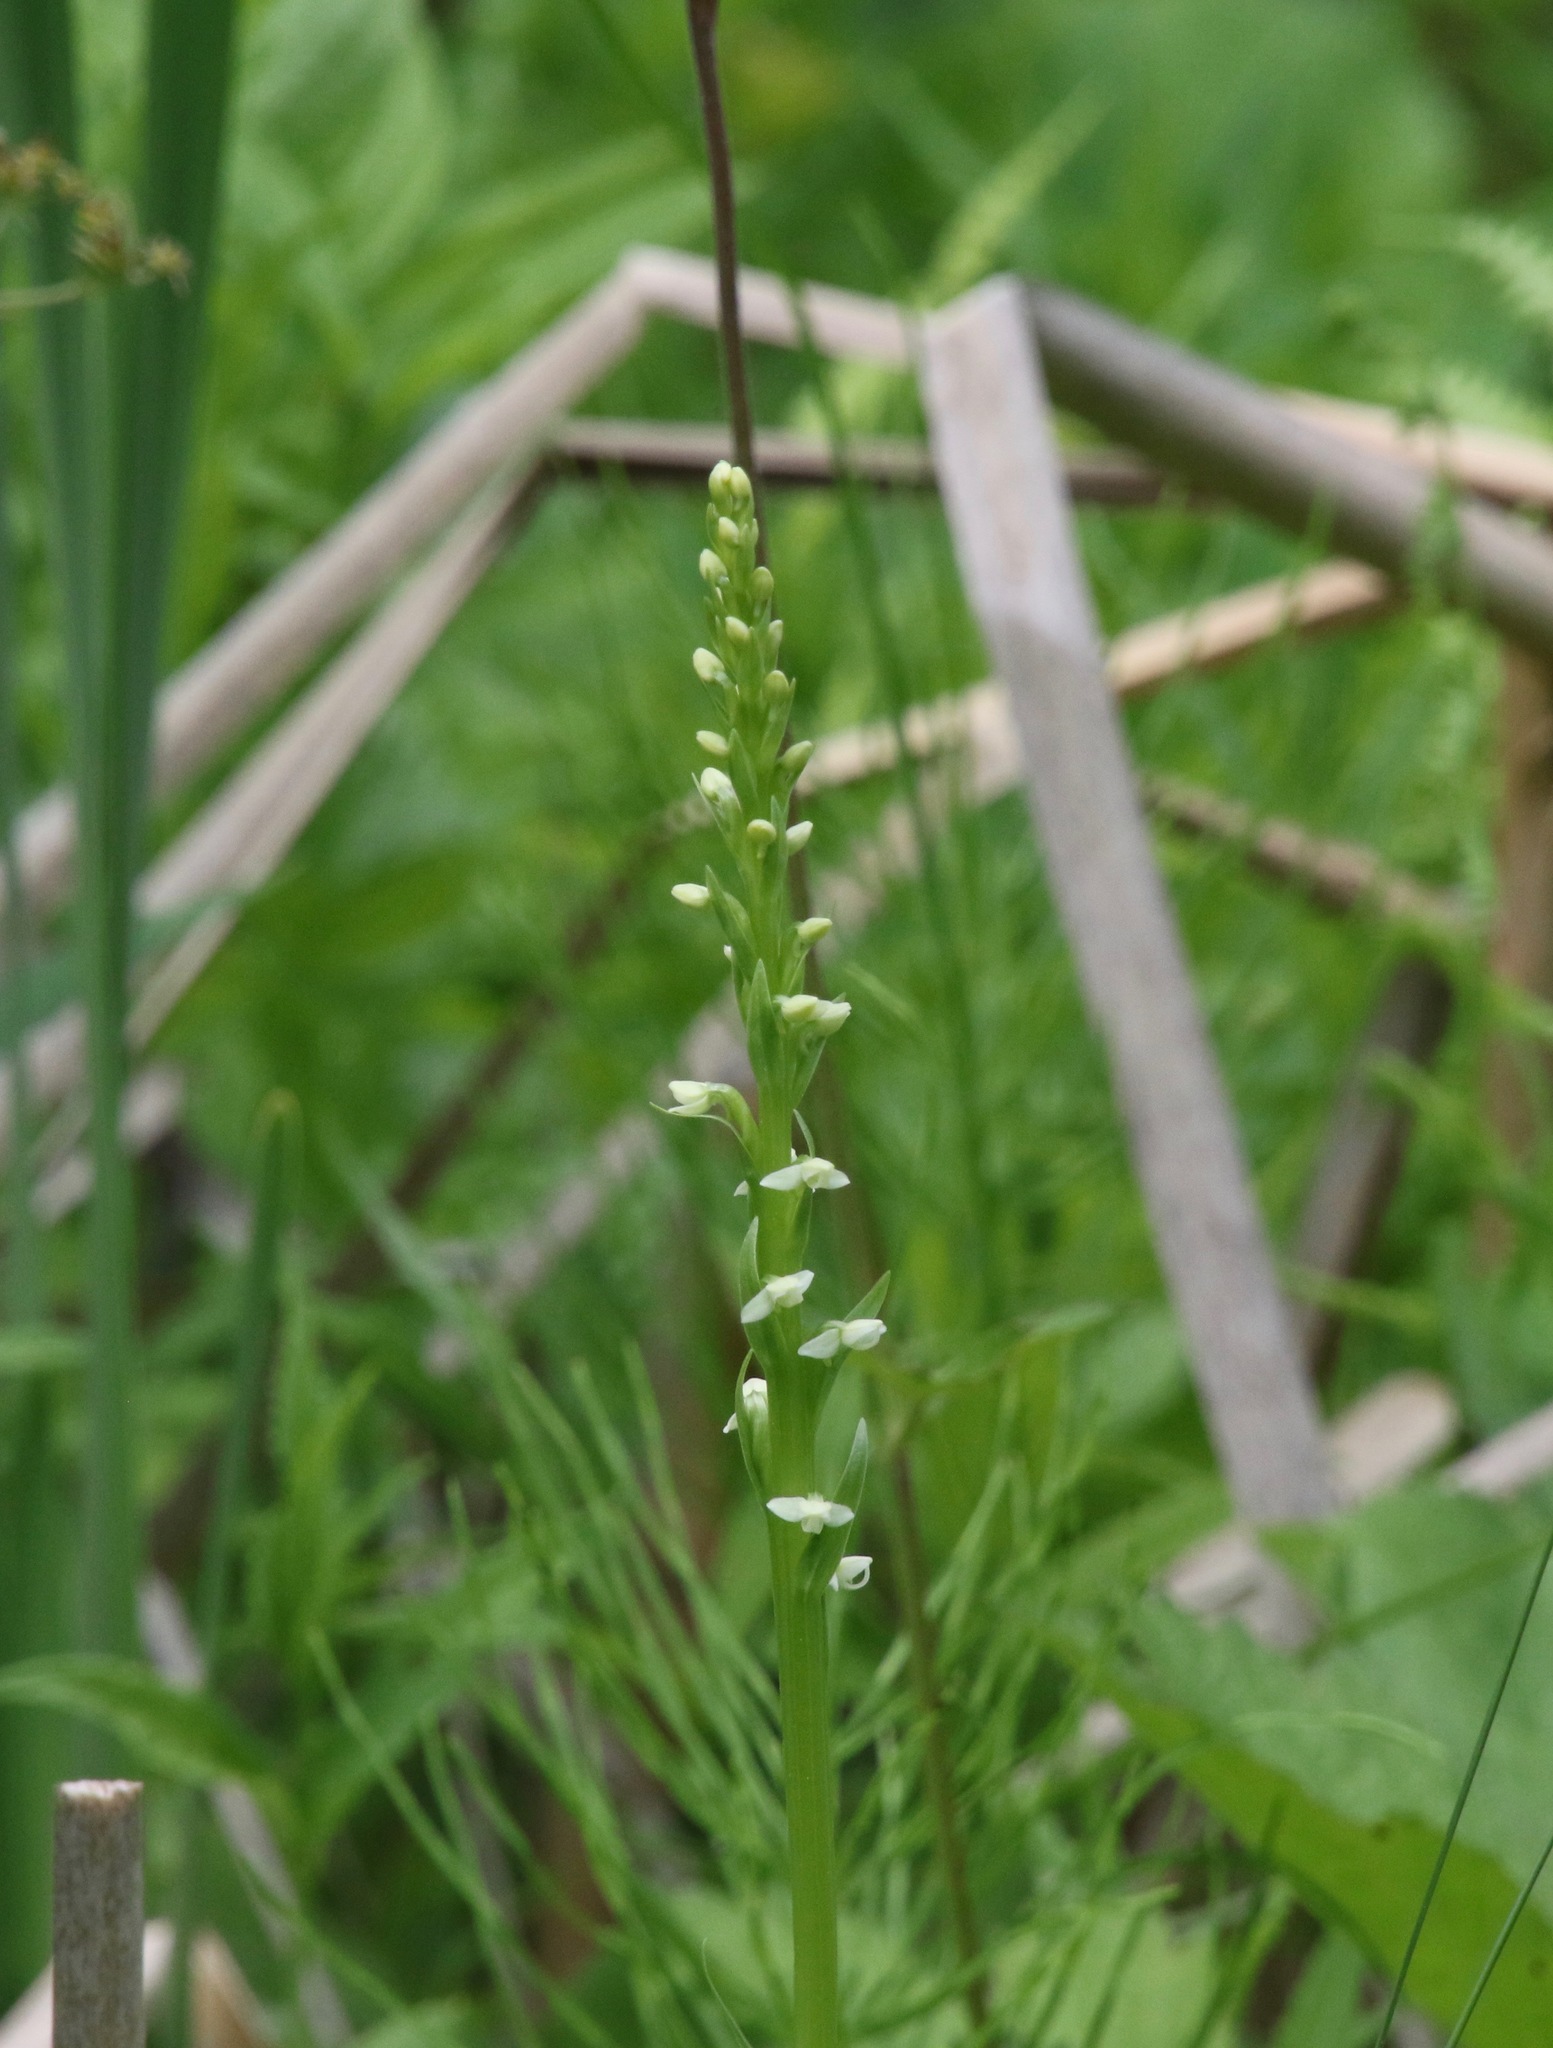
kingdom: Plantae
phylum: Tracheophyta
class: Liliopsida
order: Asparagales
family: Orchidaceae
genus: Platanthera
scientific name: Platanthera dilatata
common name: Bog candles
